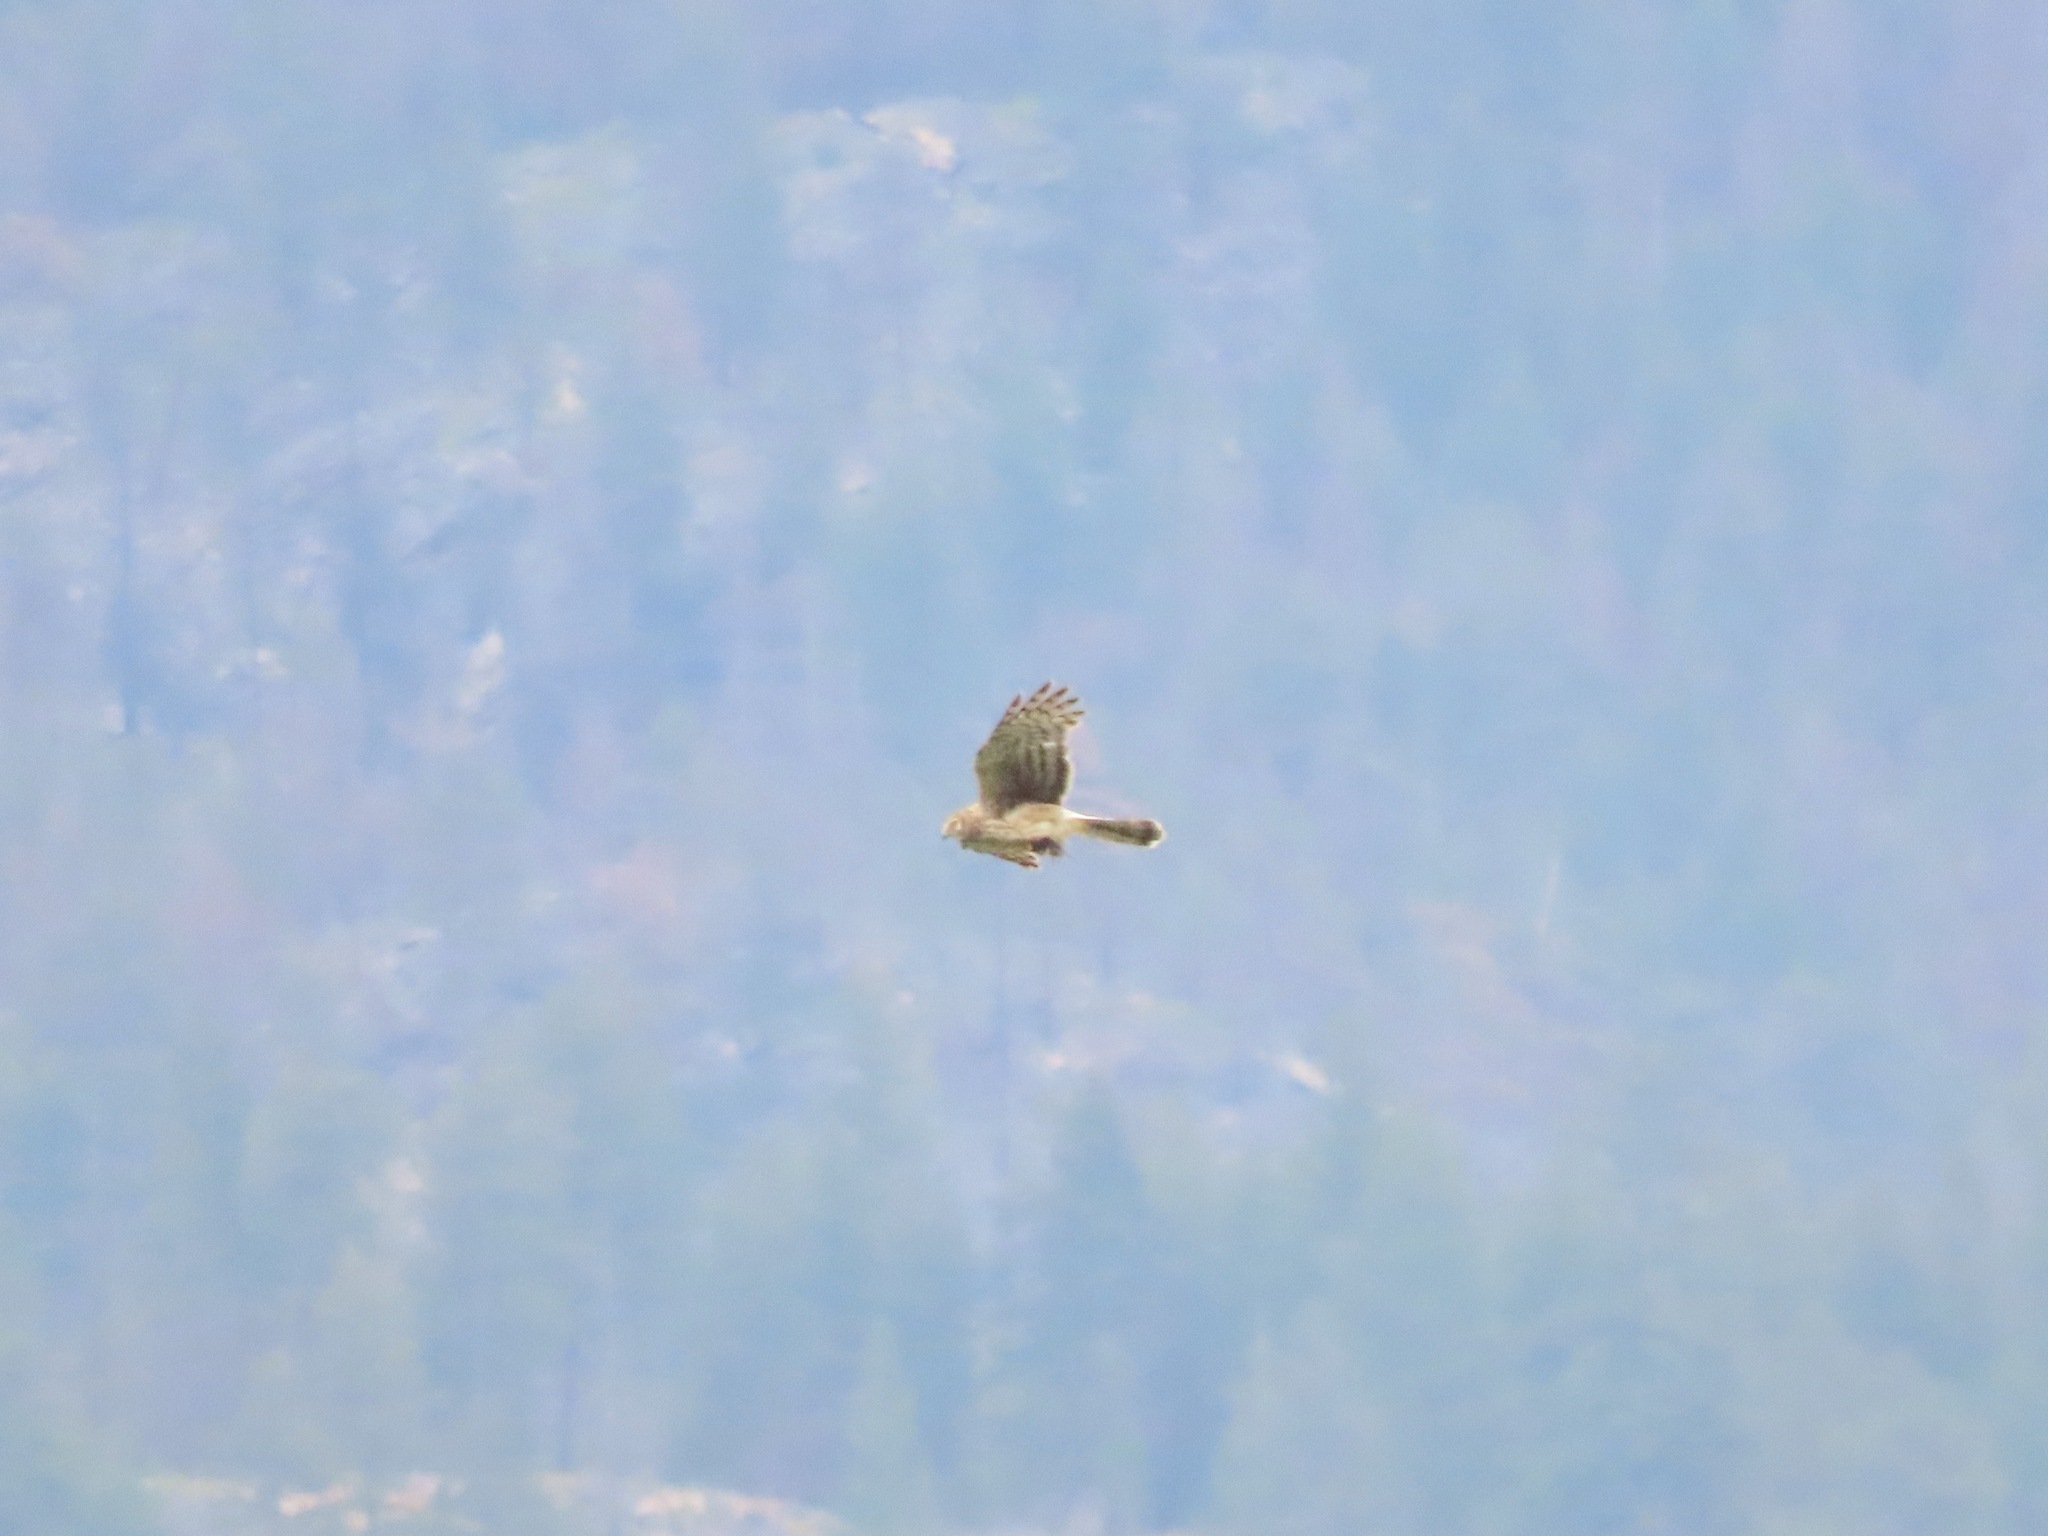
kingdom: Animalia
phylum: Chordata
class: Aves
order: Accipitriformes
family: Accipitridae
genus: Circus
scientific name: Circus cyaneus
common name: Hen harrier
